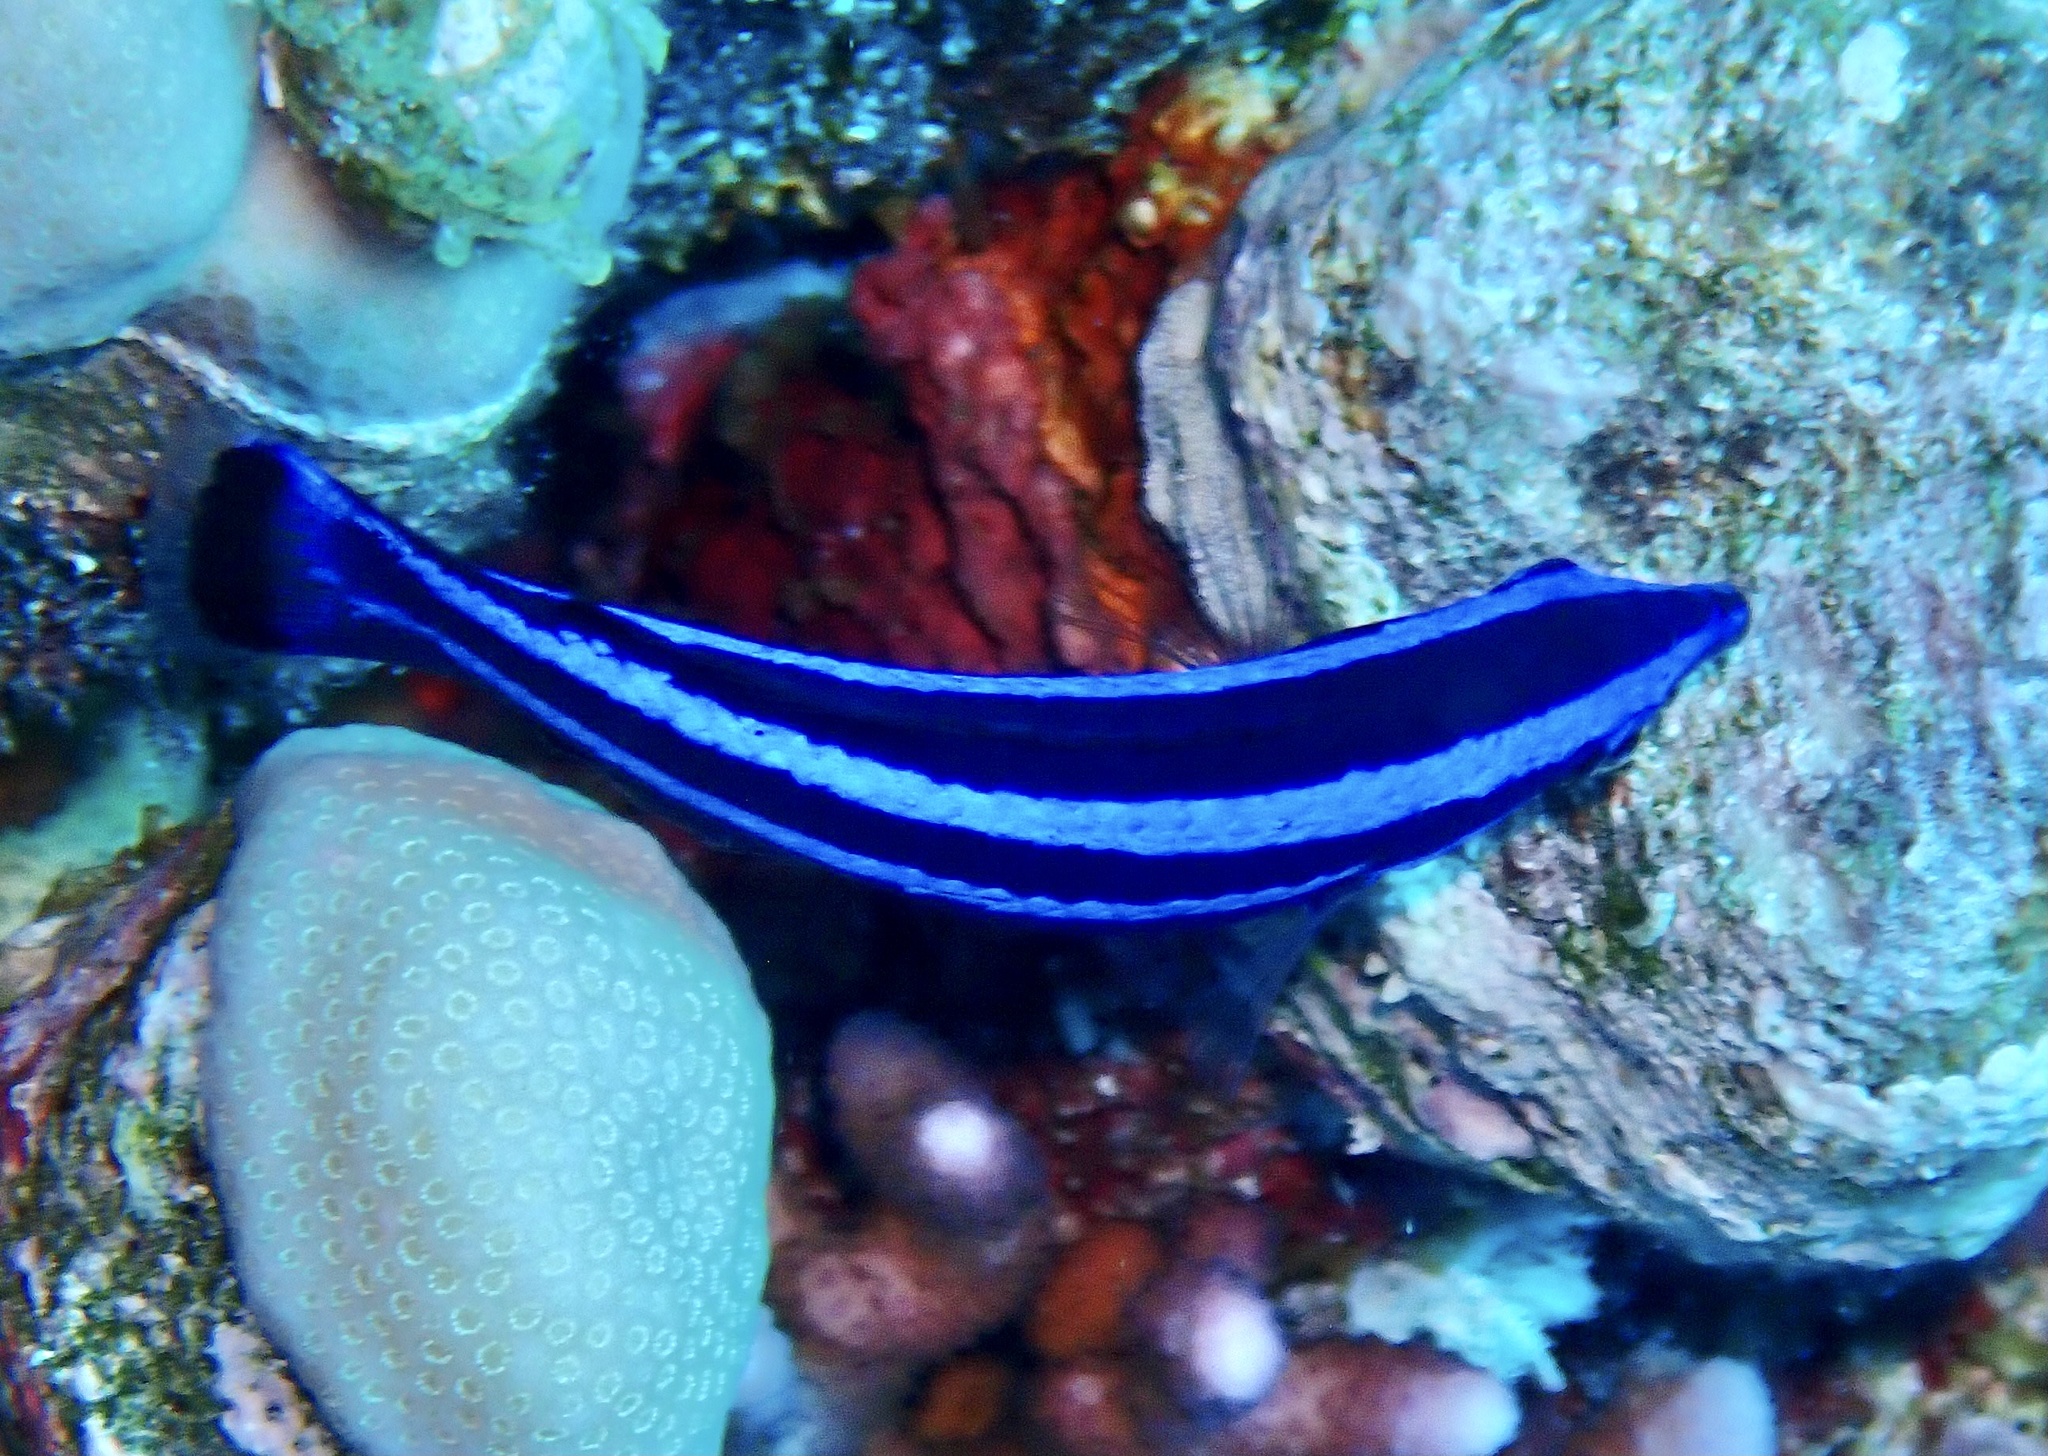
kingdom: Animalia
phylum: Chordata
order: Perciformes
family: Labridae
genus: Larabicus
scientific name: Larabicus quadrilineatus
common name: Fourline wrasse
